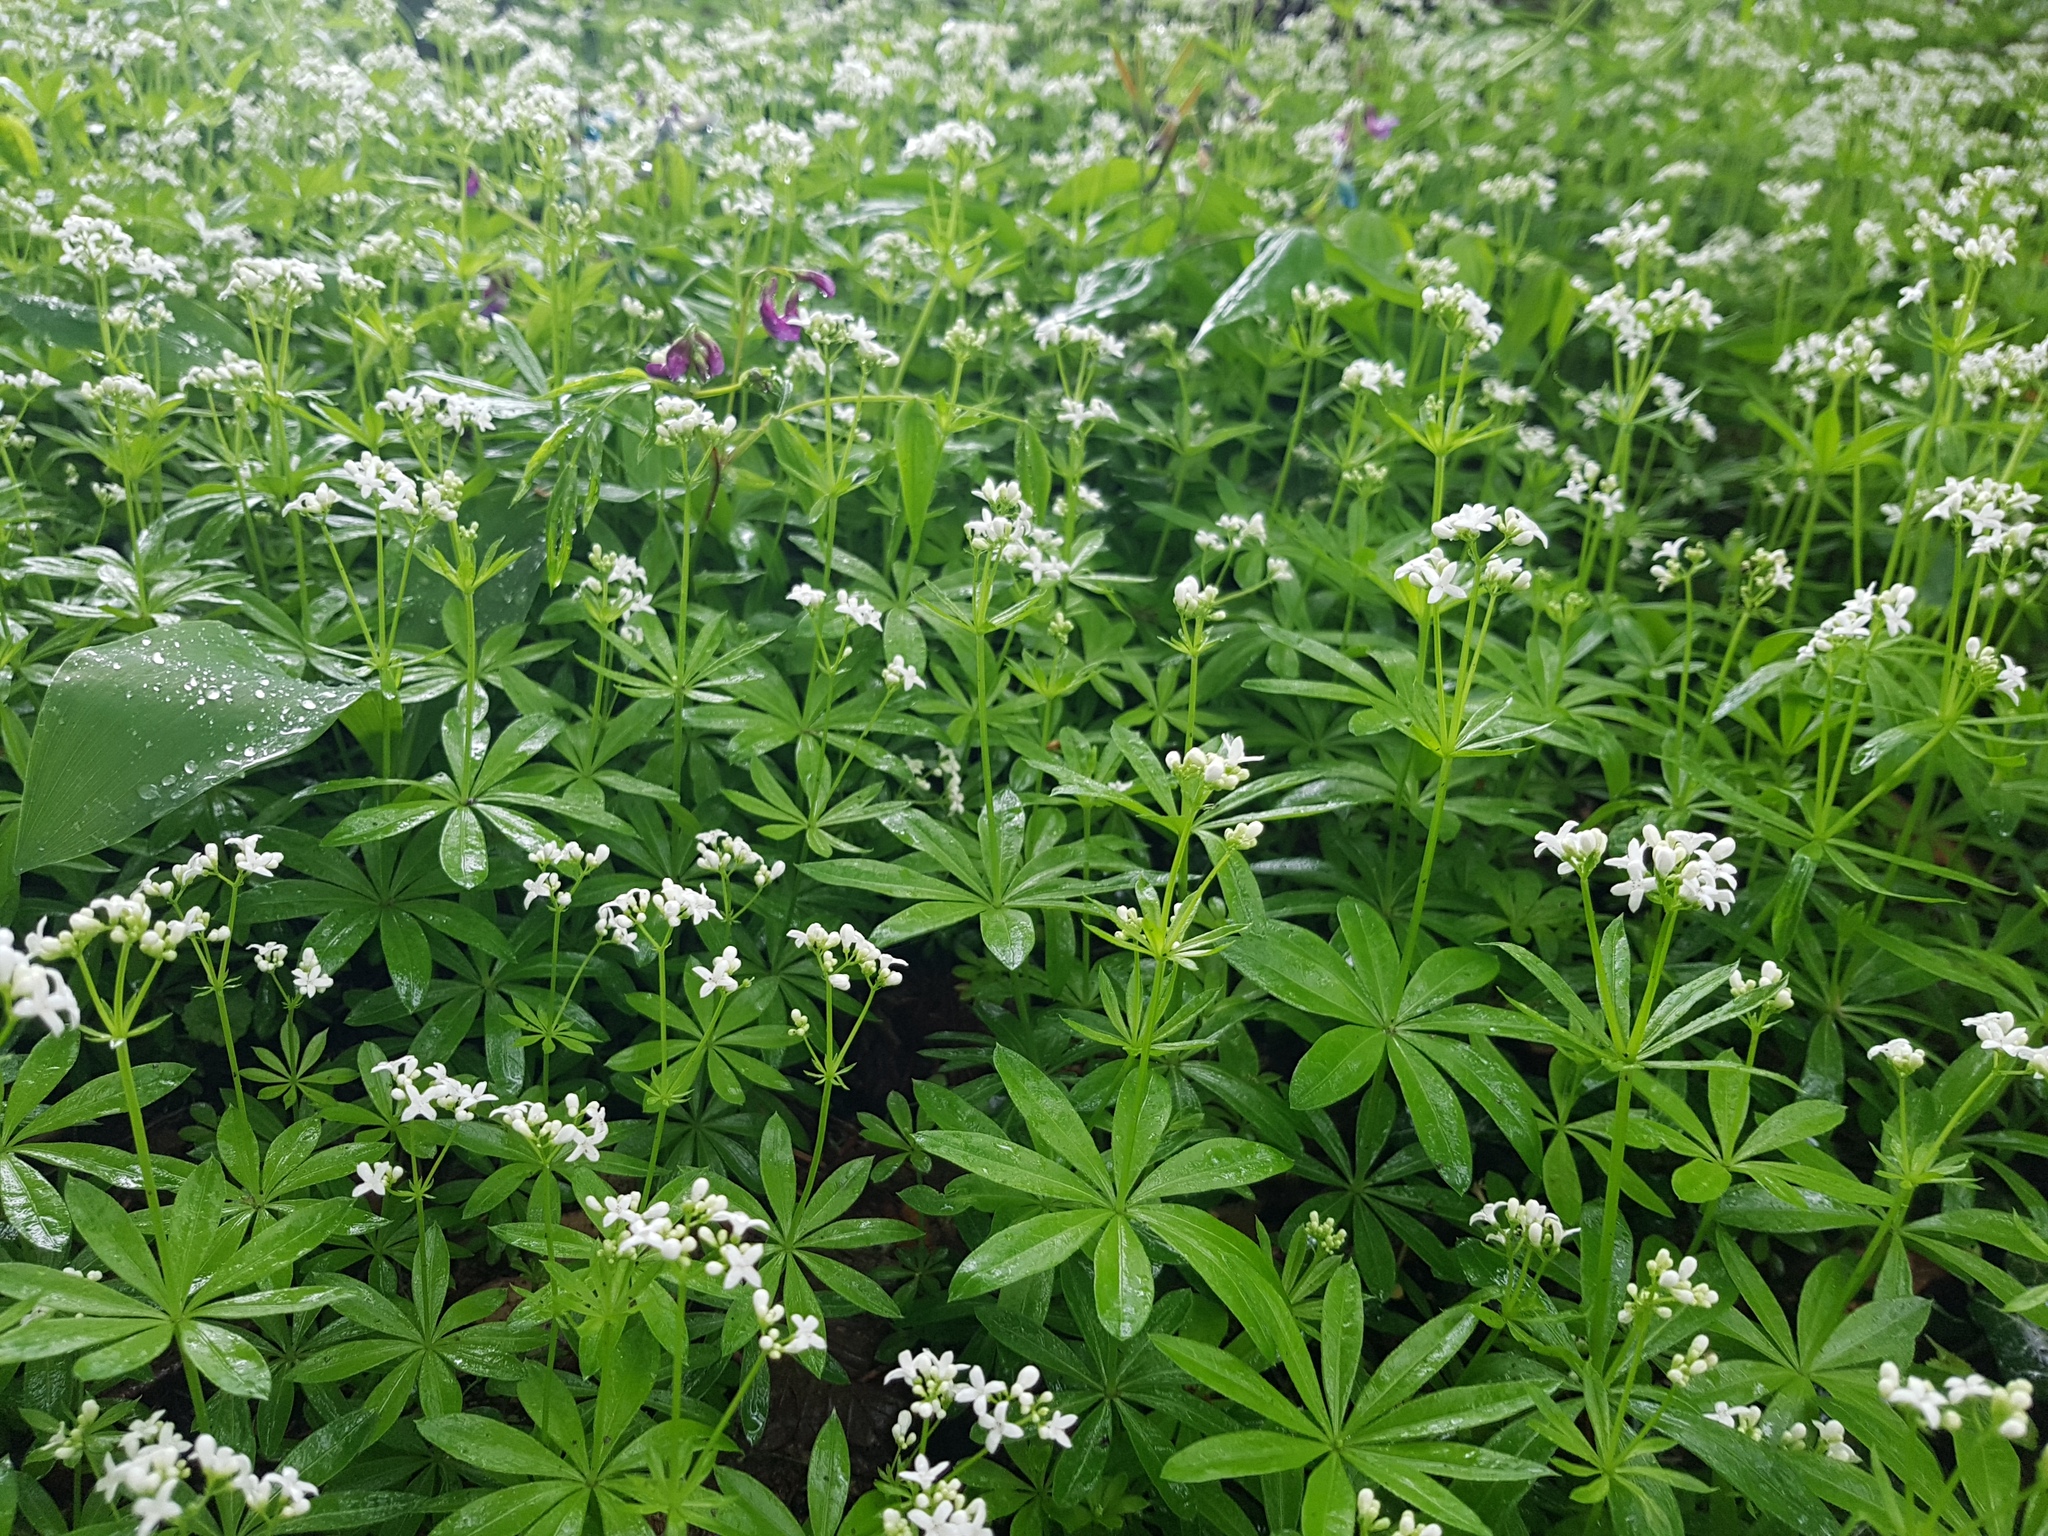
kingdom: Plantae
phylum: Tracheophyta
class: Magnoliopsida
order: Gentianales
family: Rubiaceae
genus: Galium
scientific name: Galium odoratum
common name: Sweet woodruff
